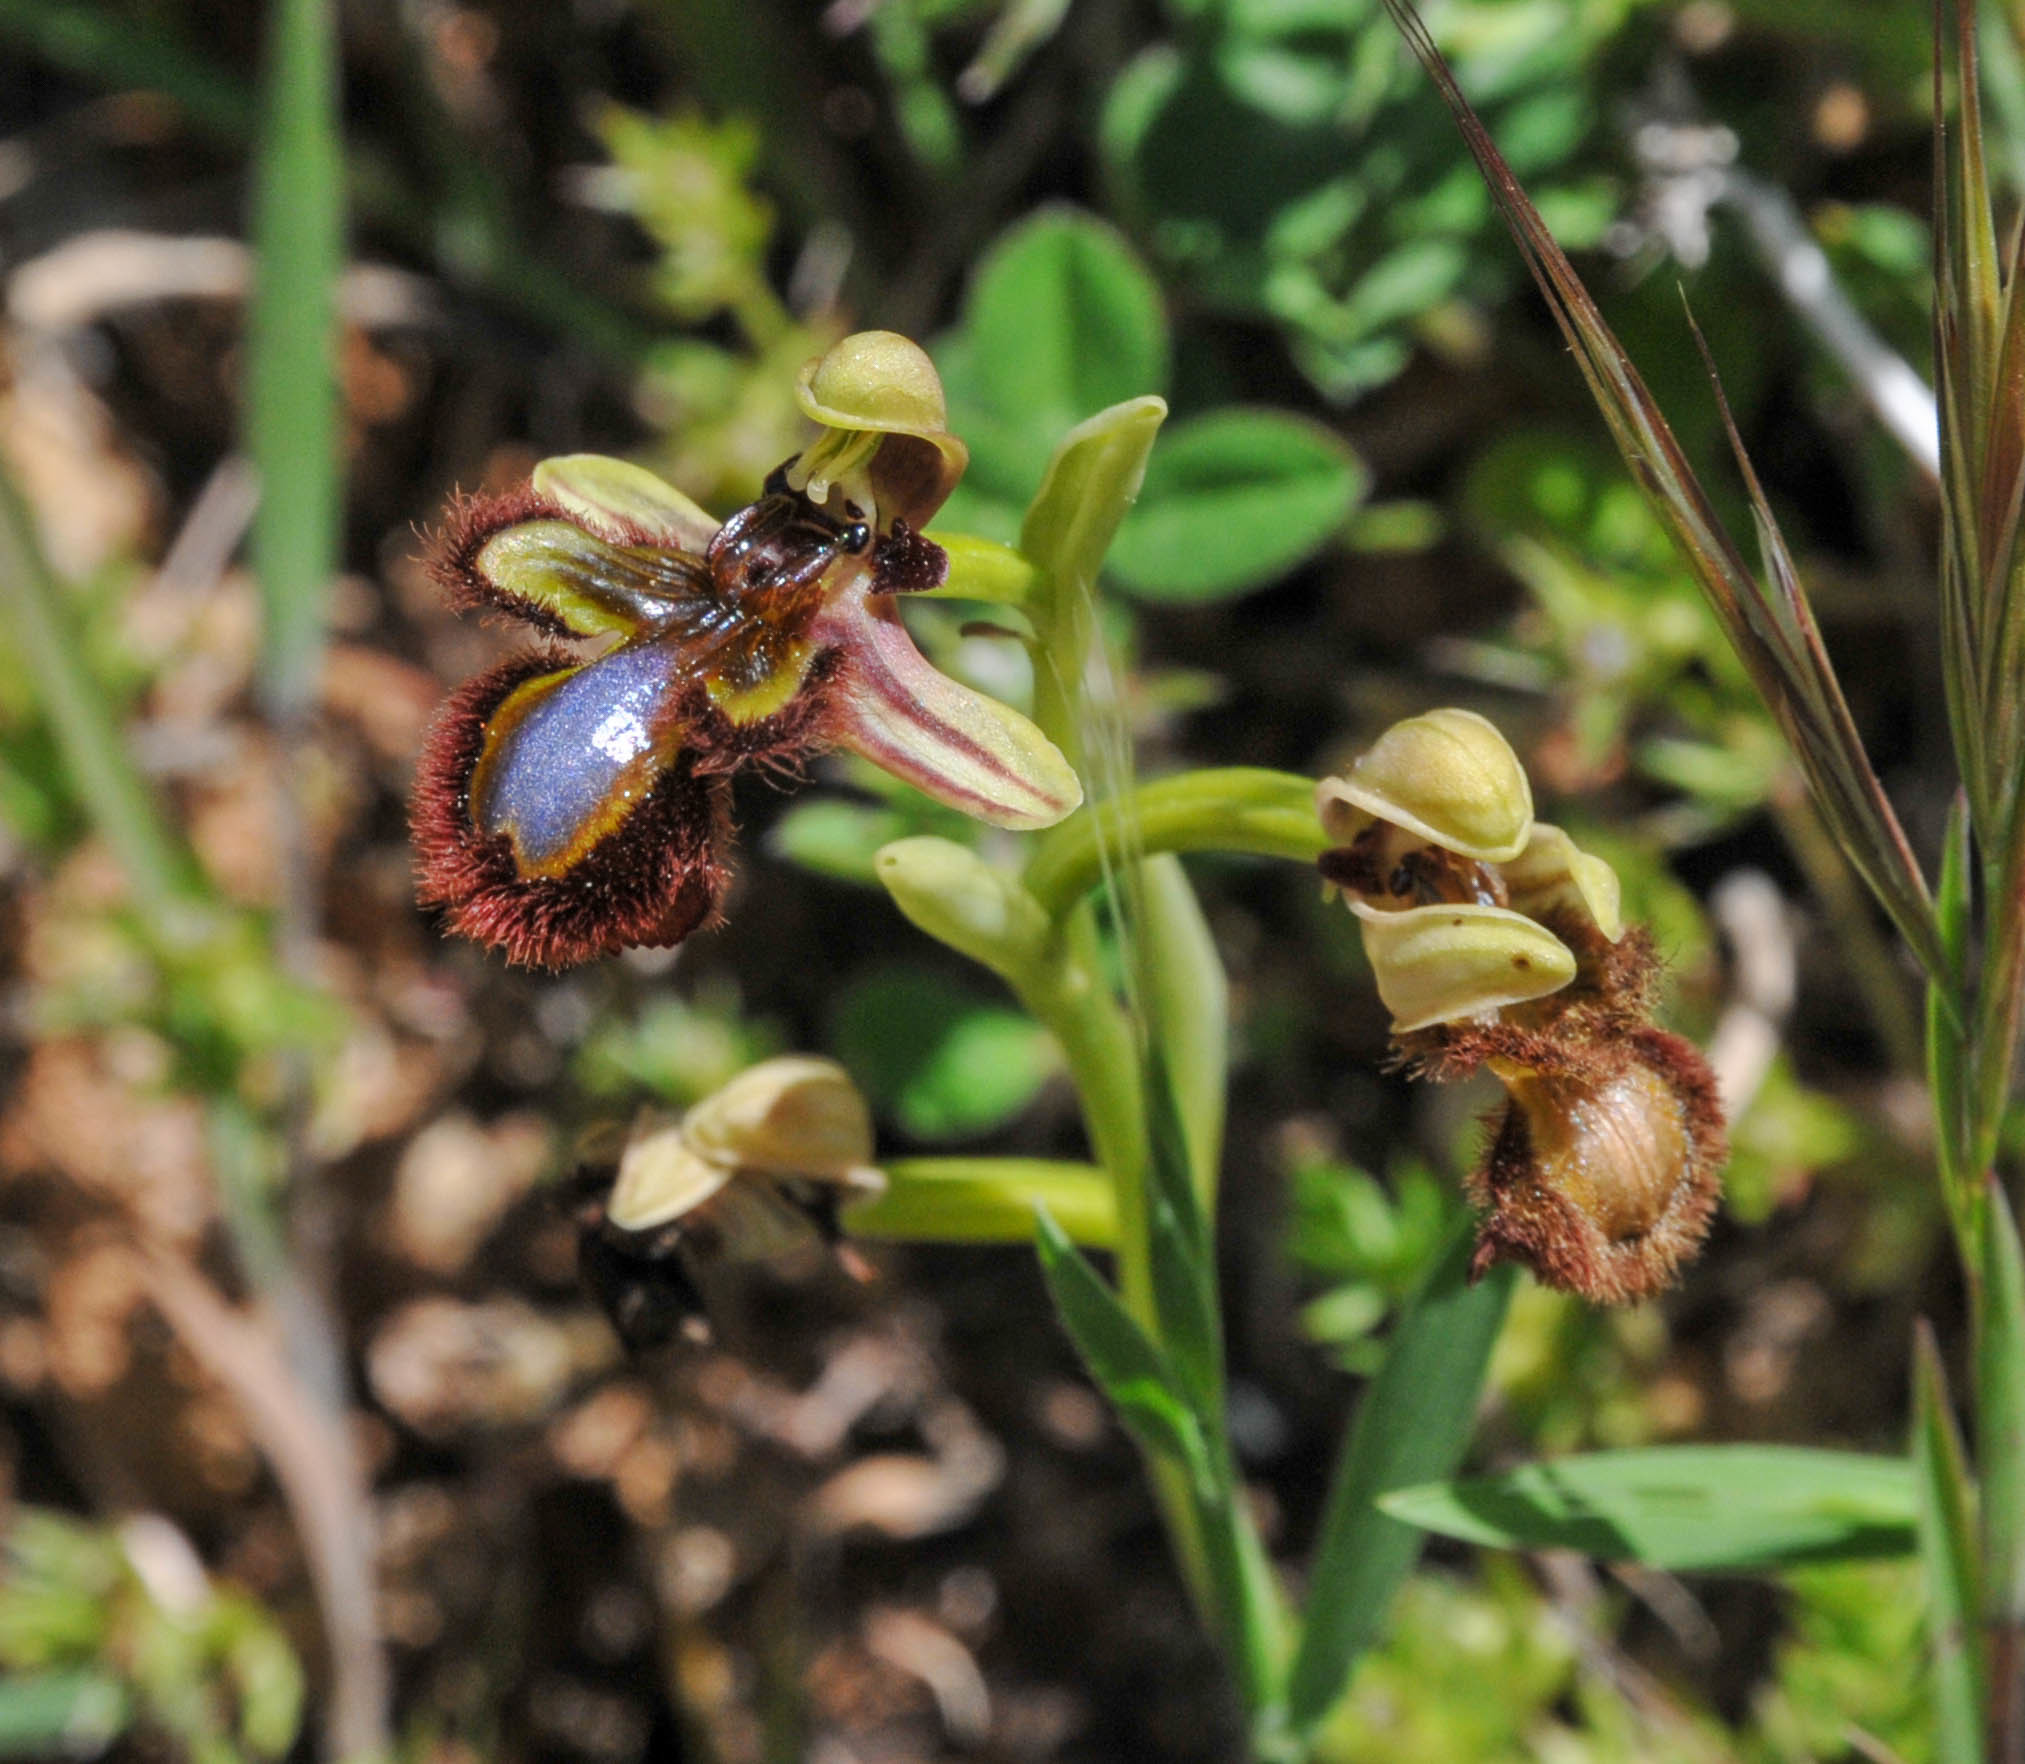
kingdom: Plantae
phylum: Tracheophyta
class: Liliopsida
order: Asparagales
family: Orchidaceae
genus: Ophrys
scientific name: Ophrys speculum
